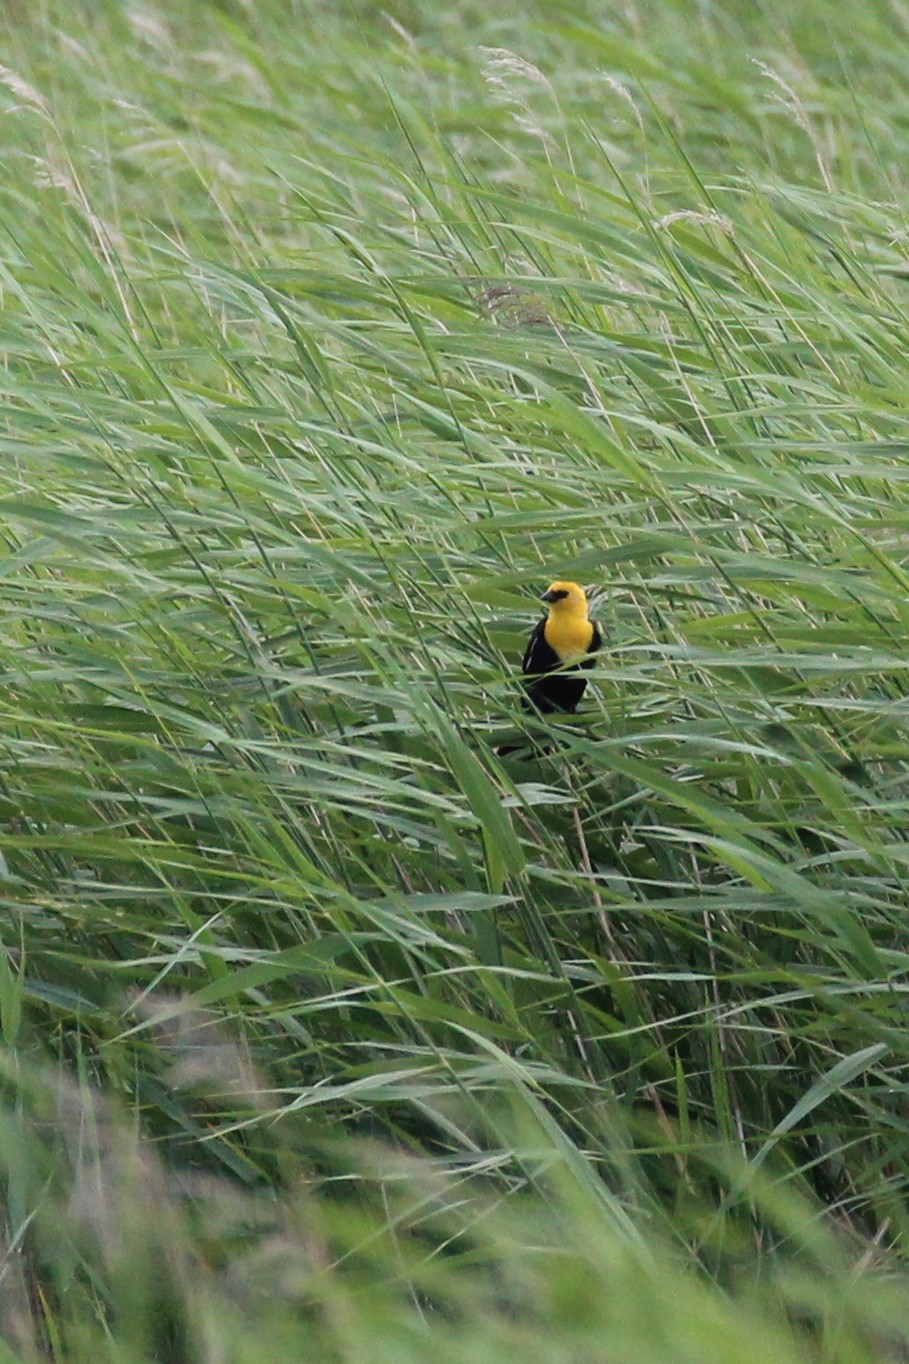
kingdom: Animalia
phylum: Chordata
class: Aves
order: Passeriformes
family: Icteridae
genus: Xanthocephalus
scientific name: Xanthocephalus xanthocephalus
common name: Yellow-headed blackbird
